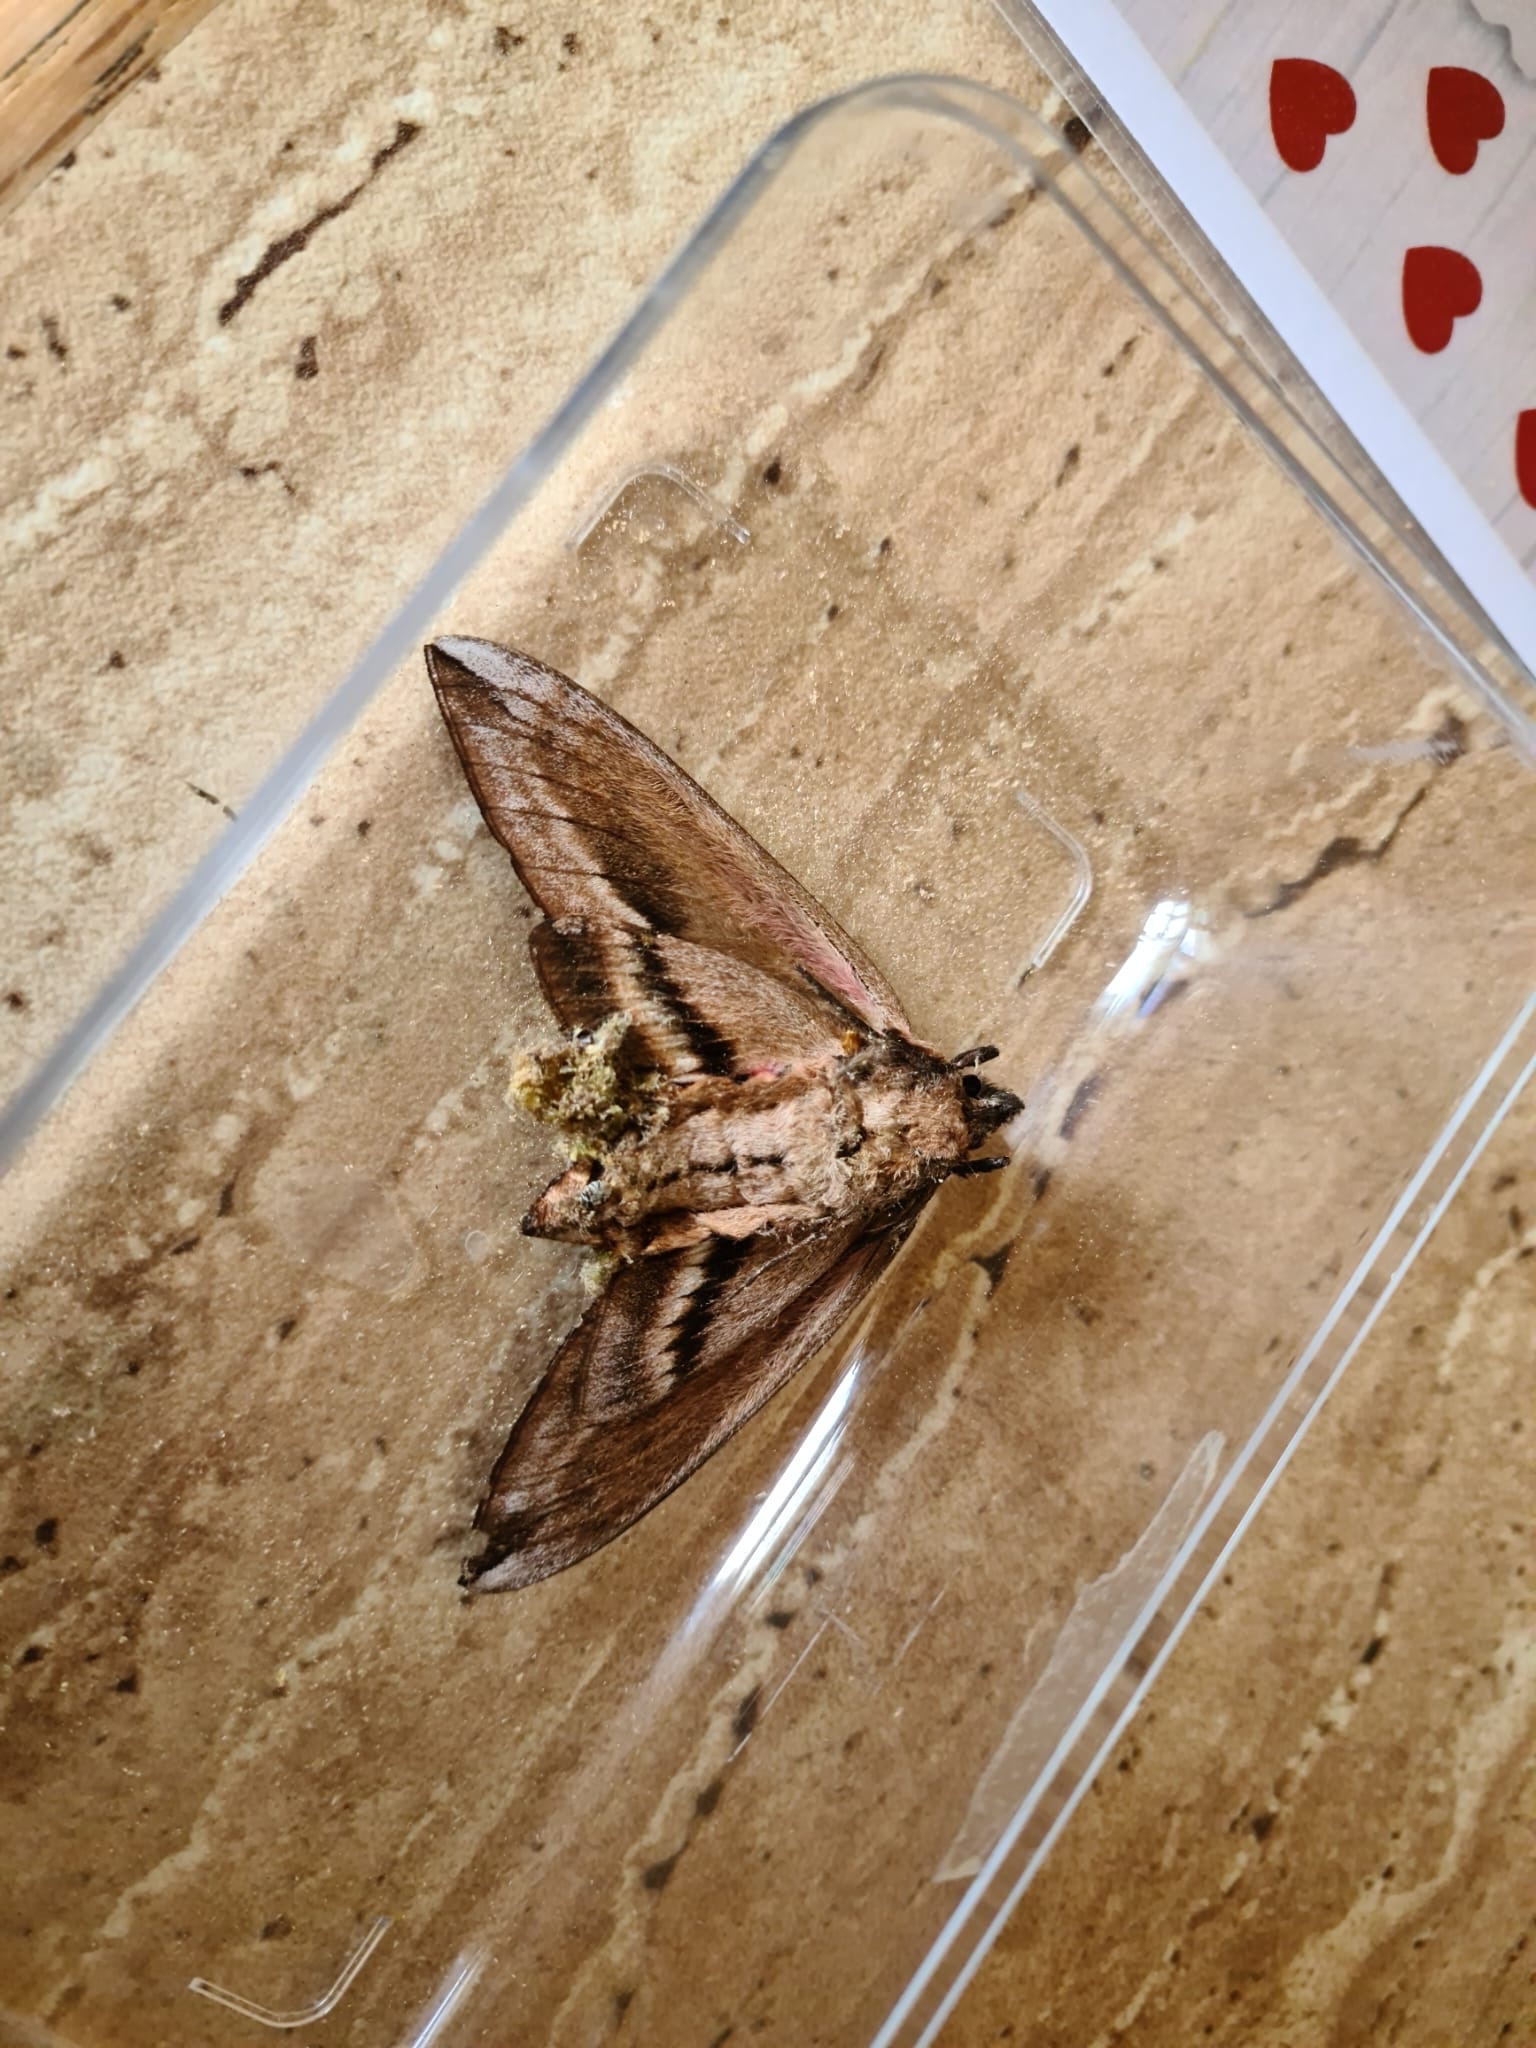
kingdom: Animalia
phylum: Arthropoda
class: Insecta
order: Lepidoptera
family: Sphingidae
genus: Sphinx
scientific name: Sphinx ligustri
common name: Privet hawk-moth
